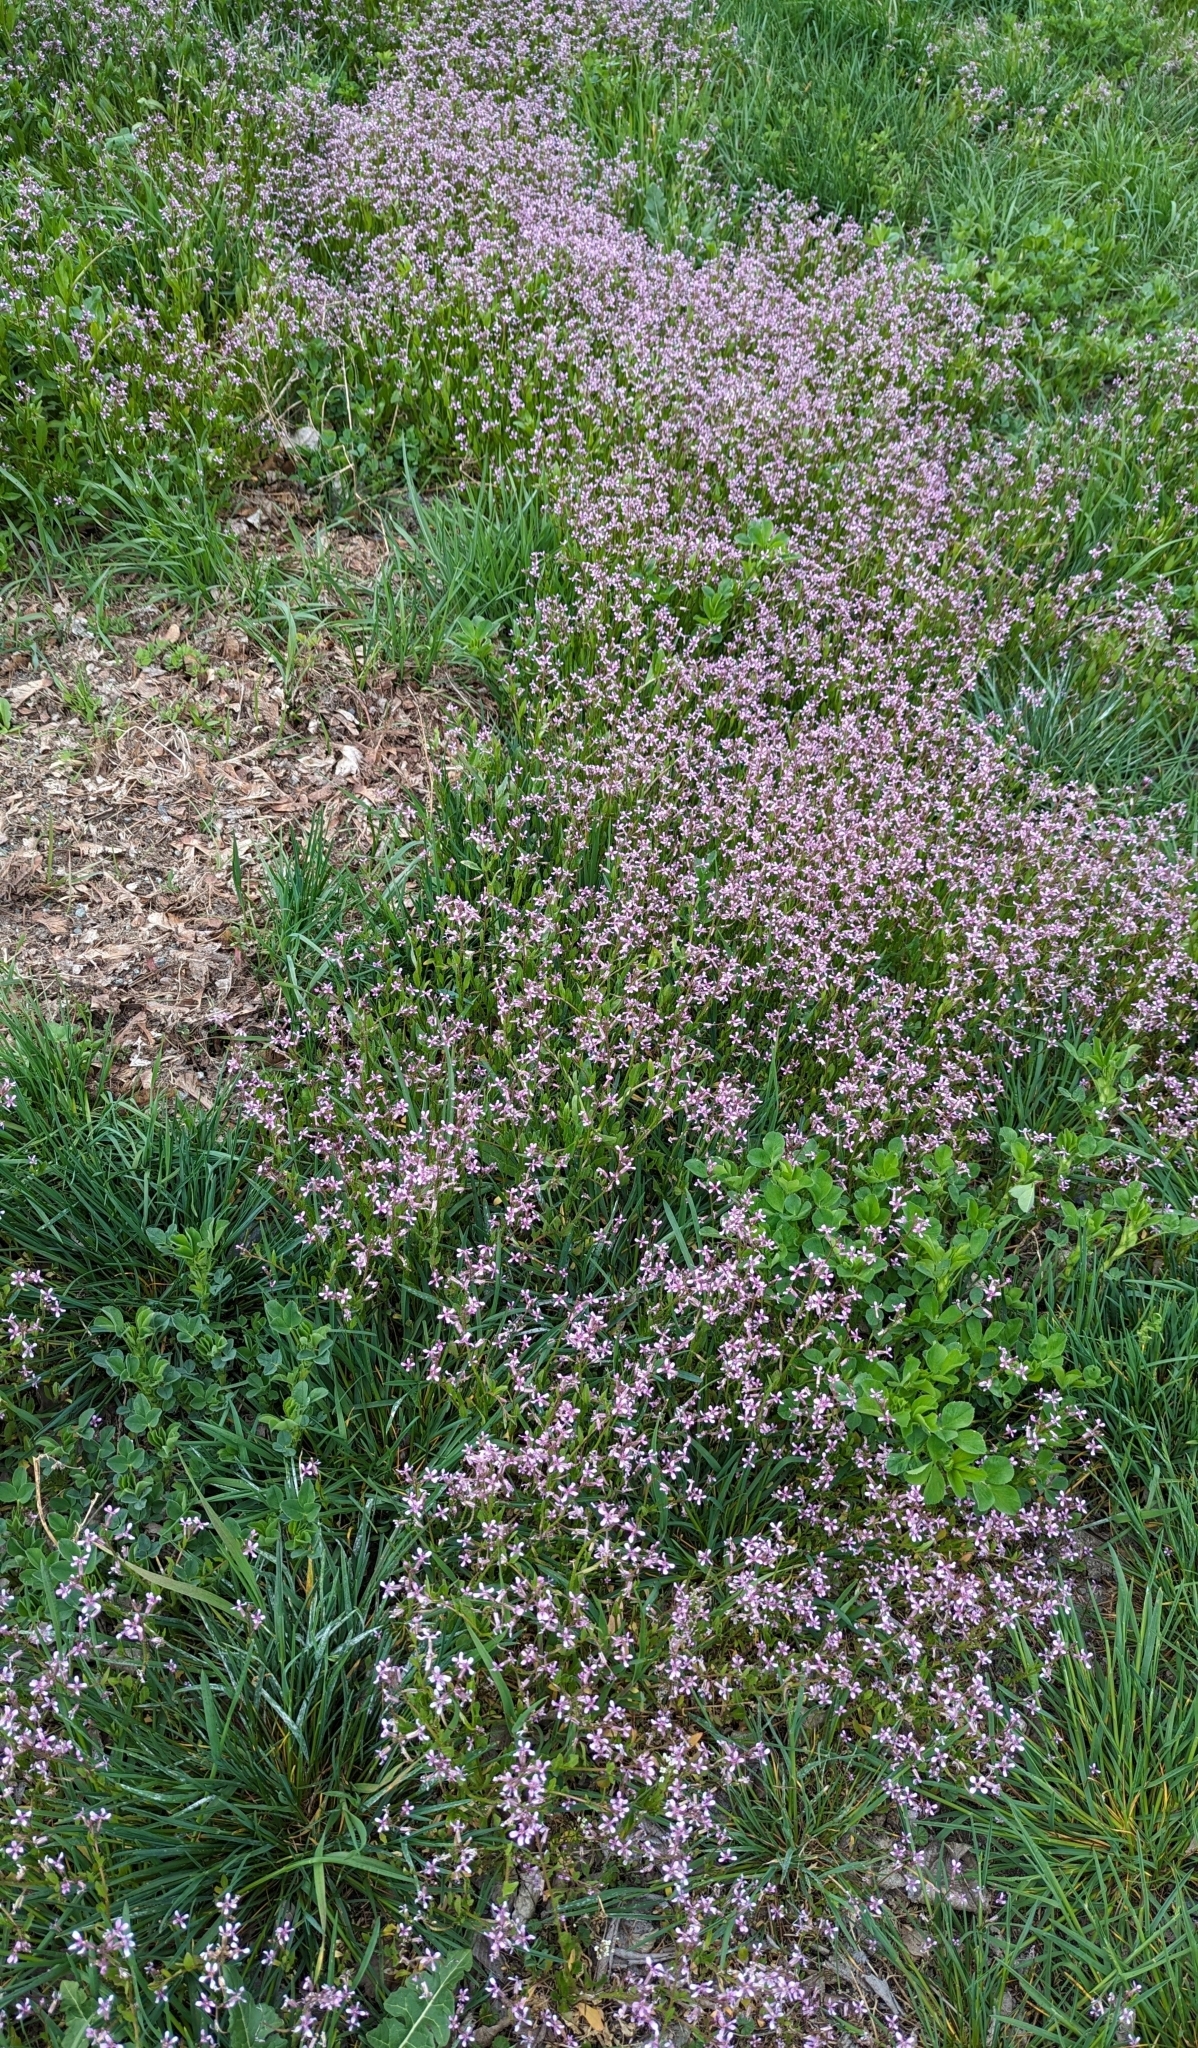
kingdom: Plantae
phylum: Tracheophyta
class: Magnoliopsida
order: Brassicales
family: Brassicaceae
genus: Chorispora
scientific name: Chorispora tenella
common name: Crossflower
